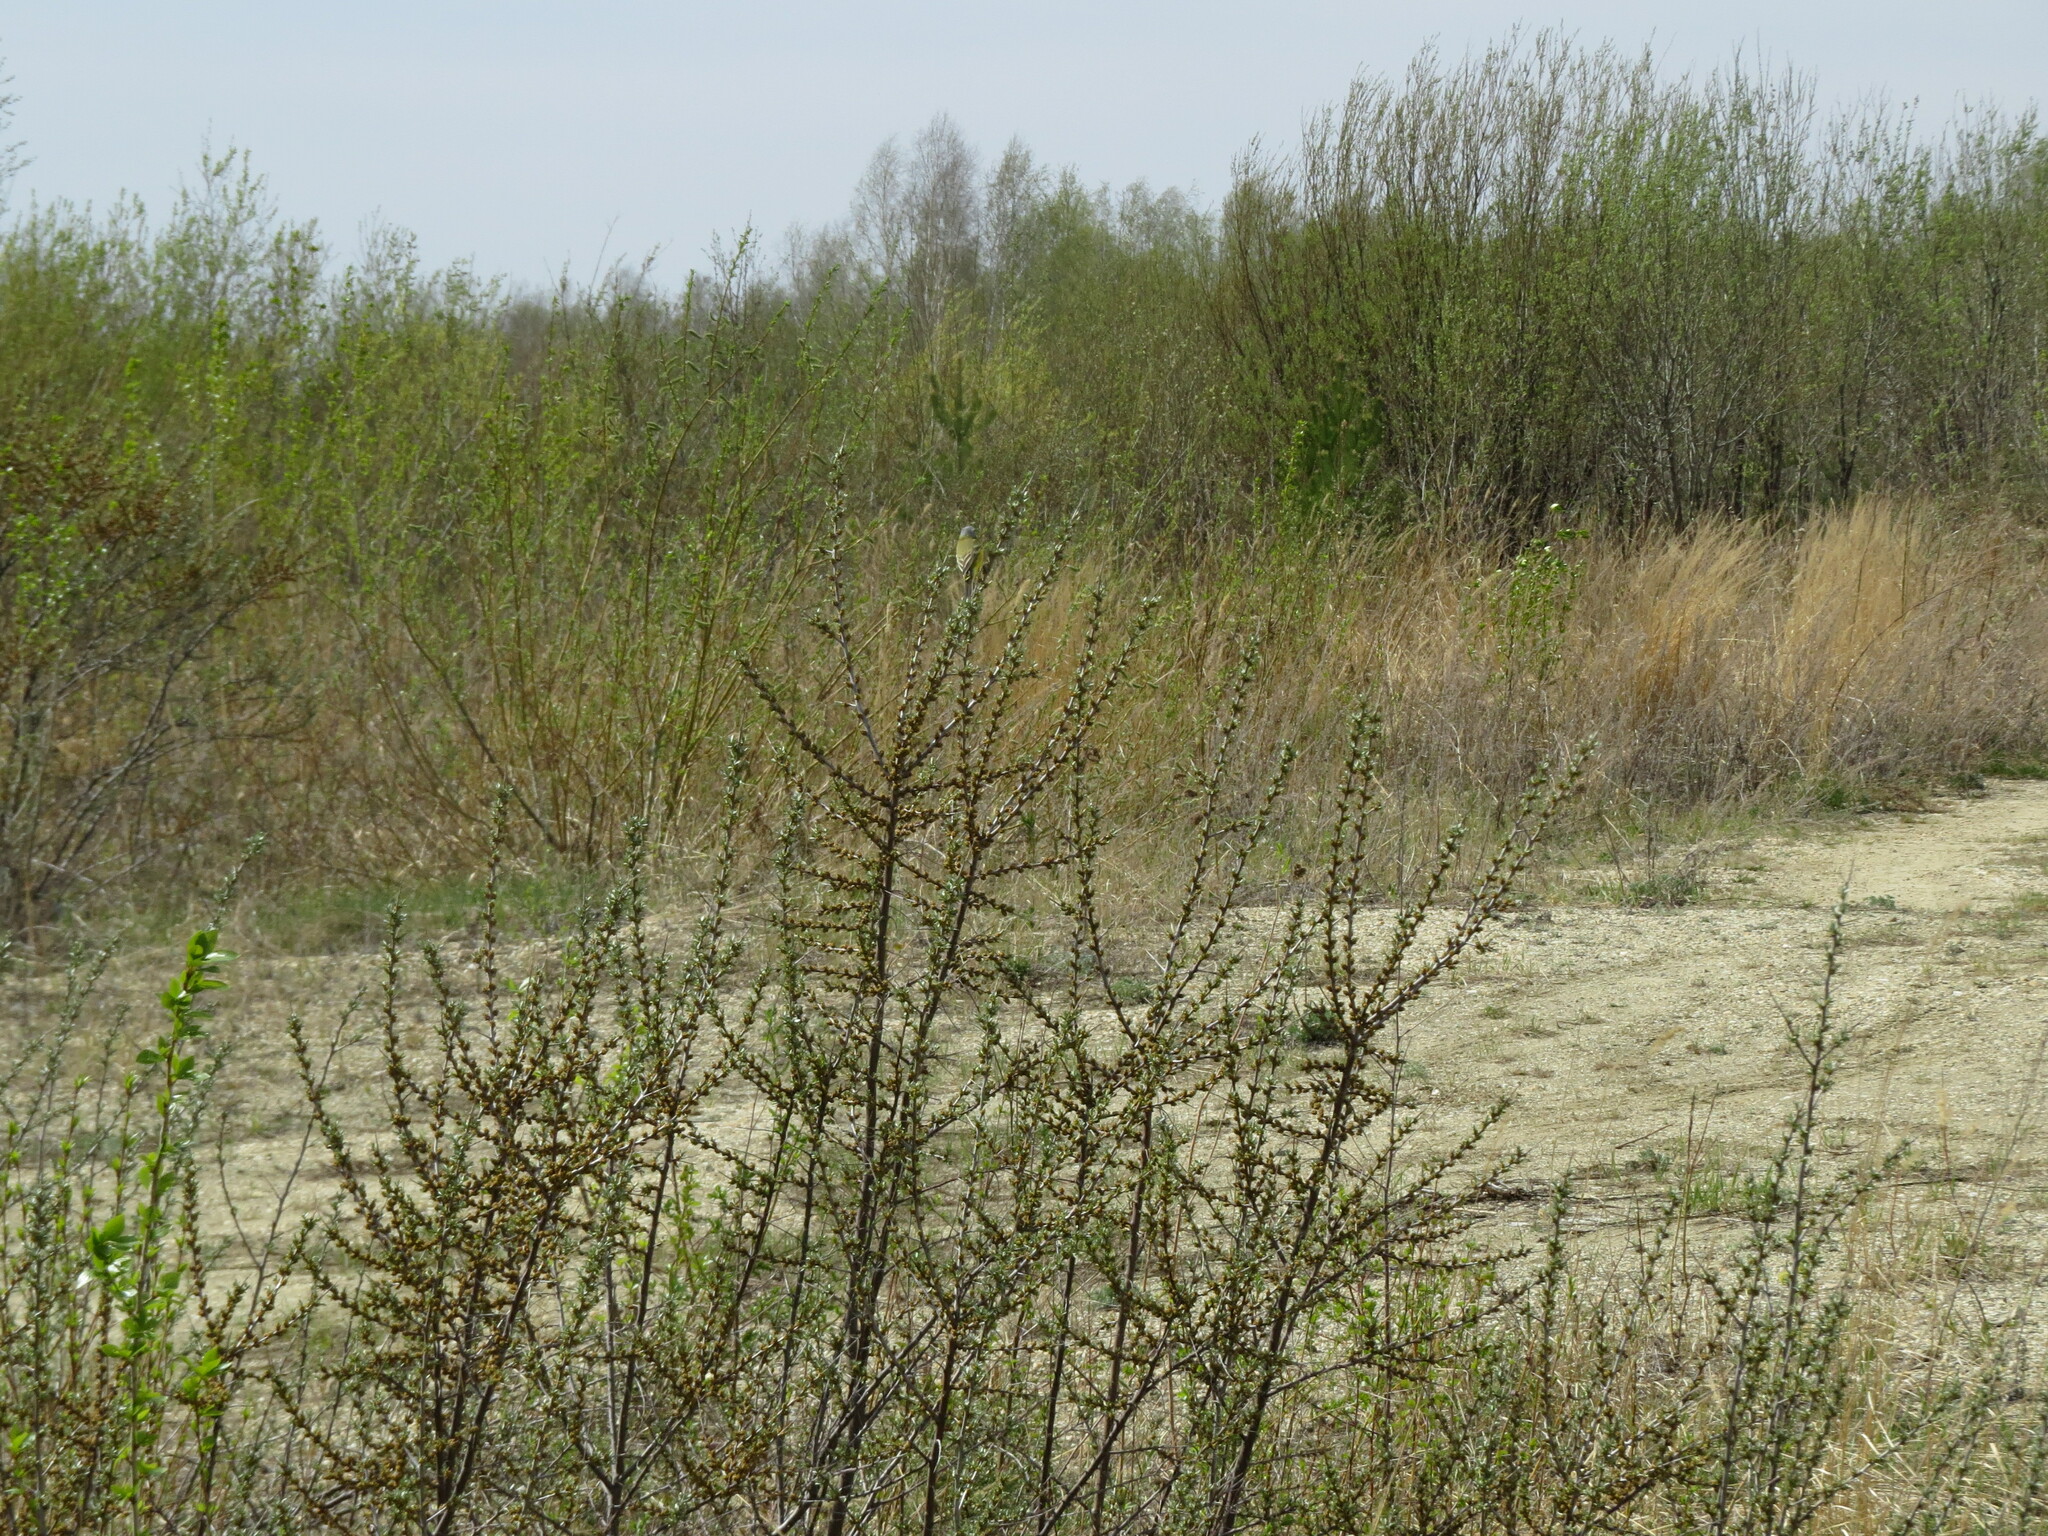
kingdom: Animalia
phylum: Chordata
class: Aves
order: Passeriformes
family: Motacillidae
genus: Motacilla
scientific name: Motacilla flava
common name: Western yellow wagtail
